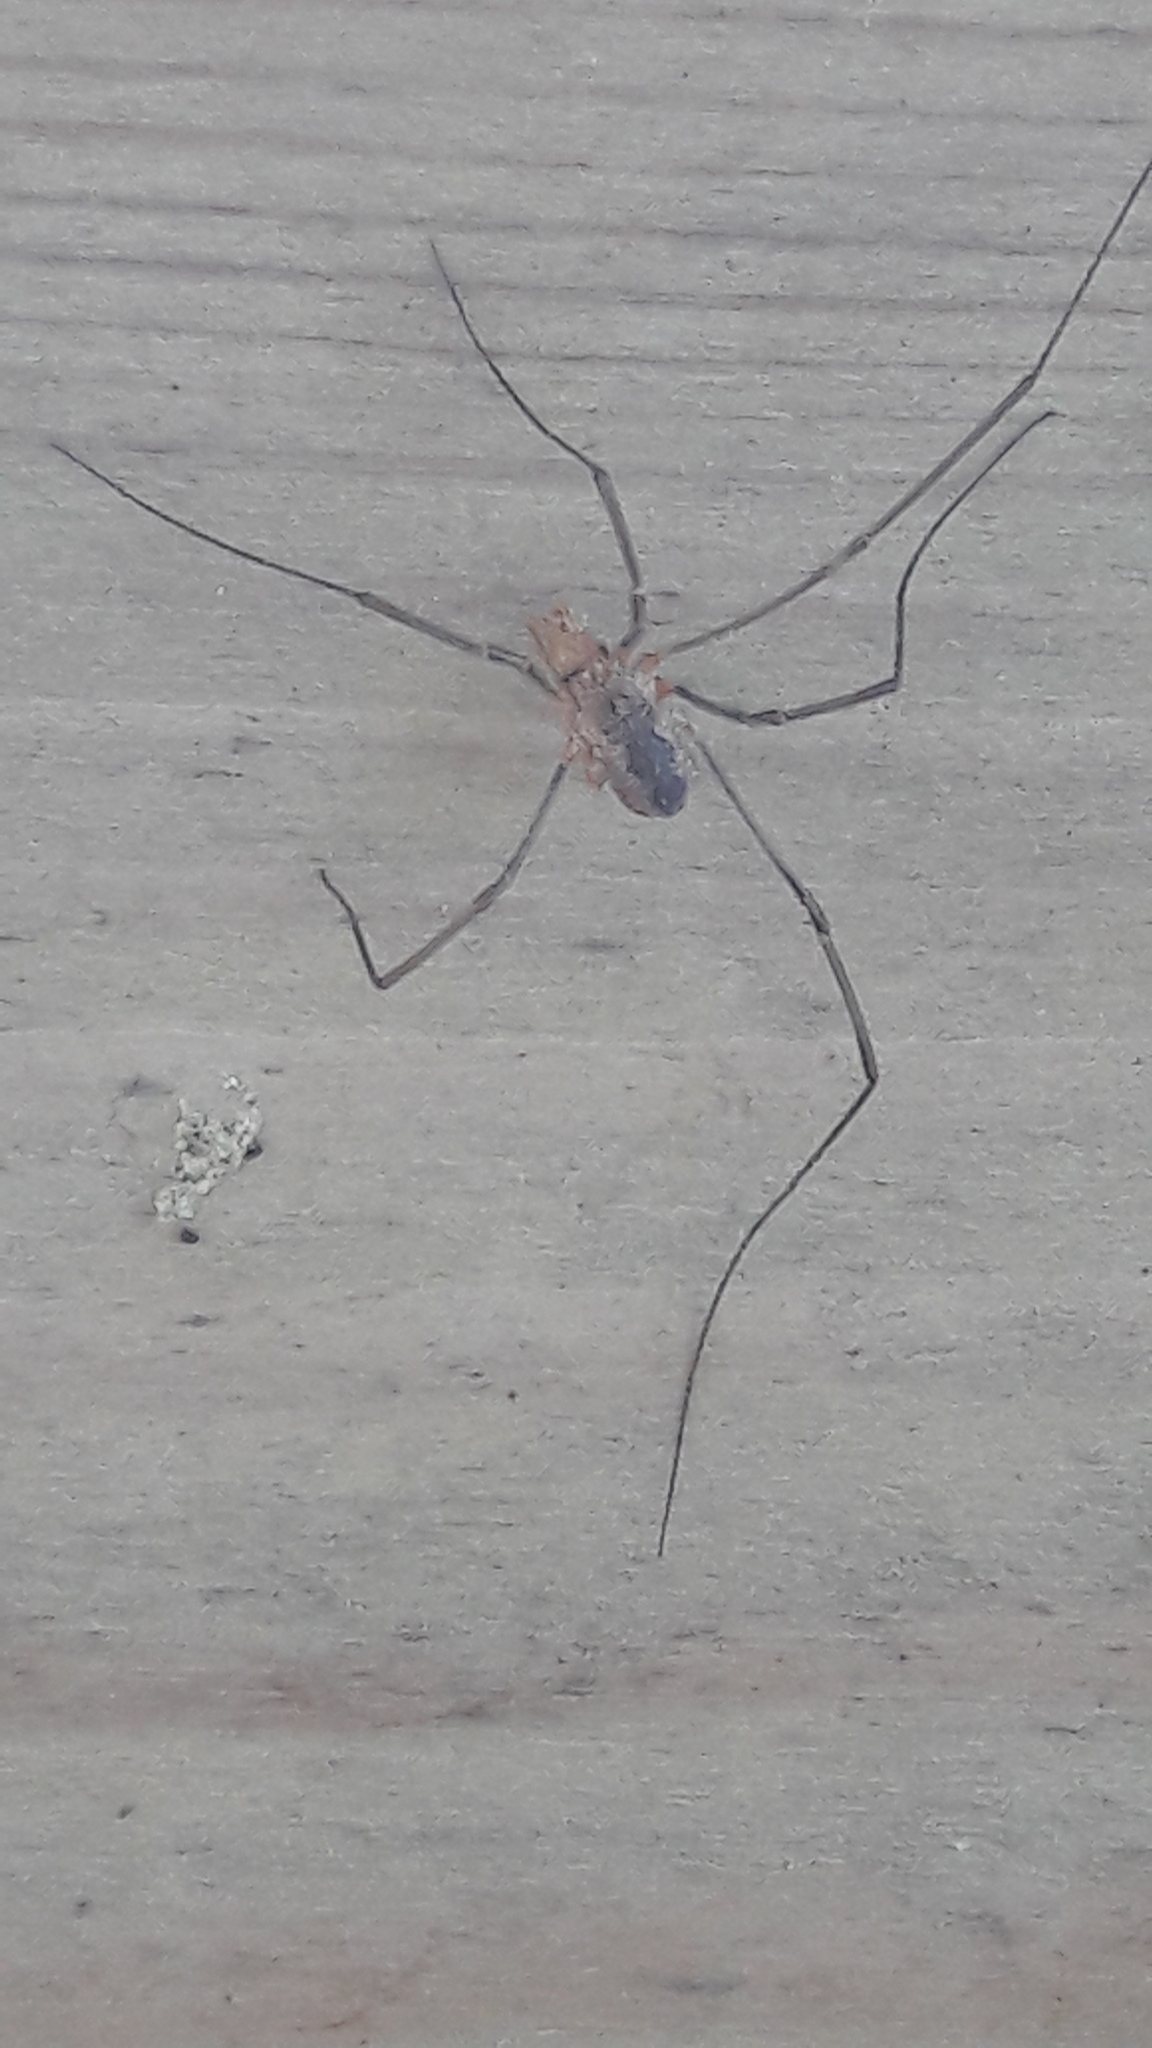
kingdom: Animalia
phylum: Arthropoda
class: Arachnida
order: Opiliones
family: Phalangiidae
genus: Phalangium
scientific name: Phalangium opilio
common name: Daddy longleg
